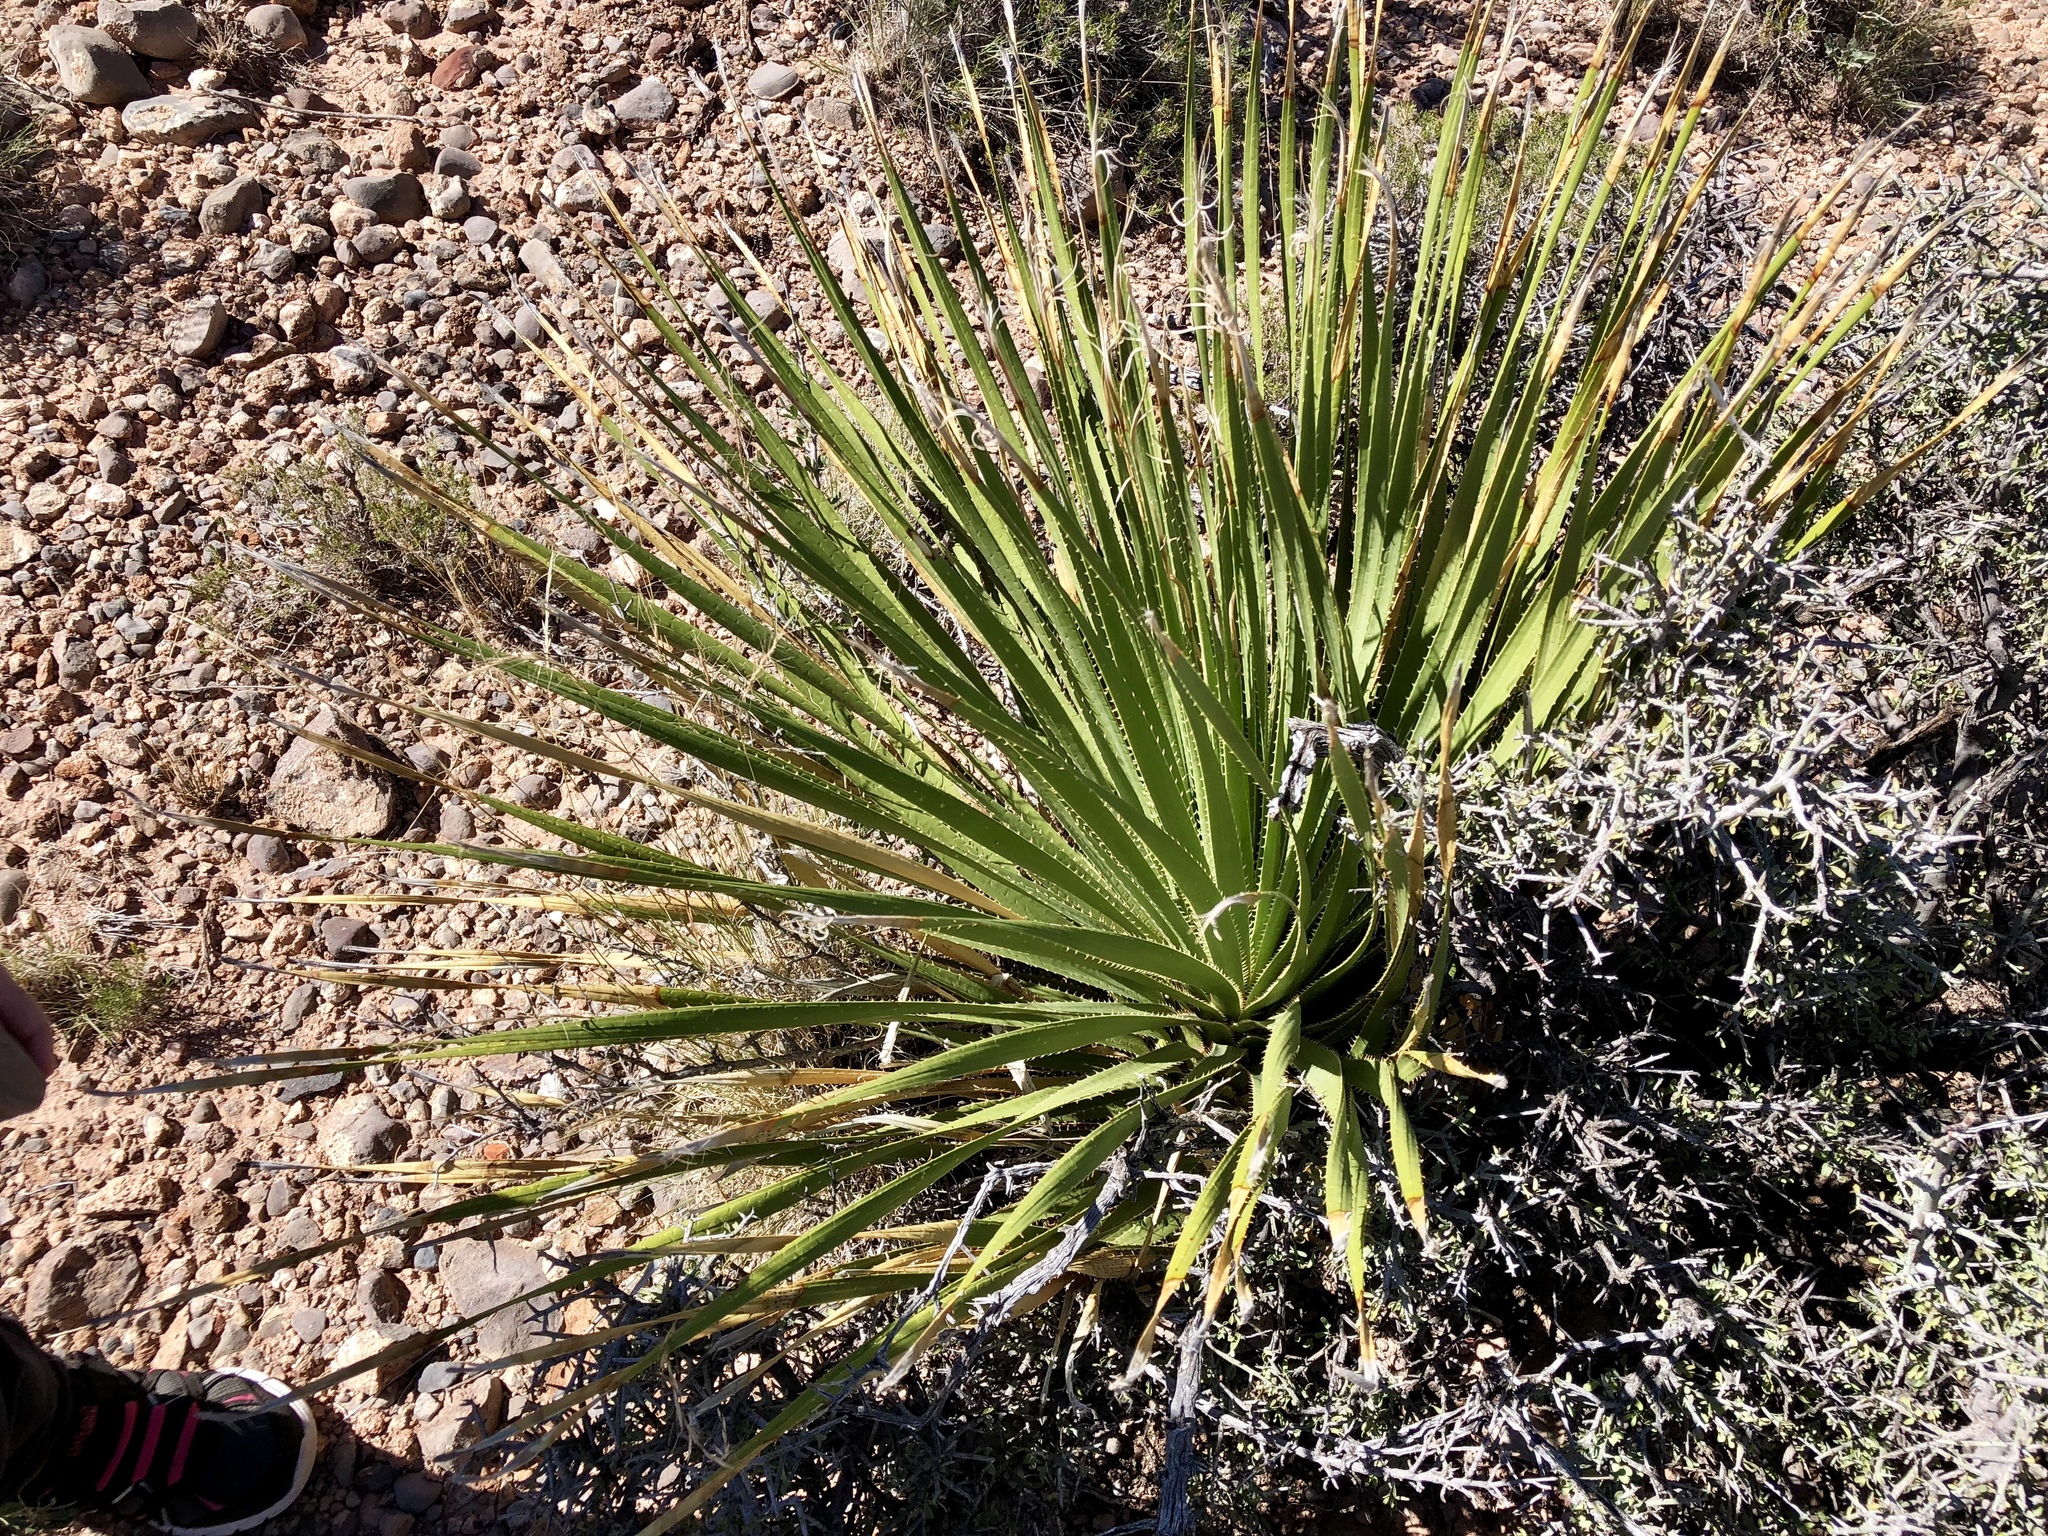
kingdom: Plantae
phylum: Tracheophyta
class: Liliopsida
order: Asparagales
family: Asparagaceae
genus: Dasylirion
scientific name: Dasylirion wheeleri
